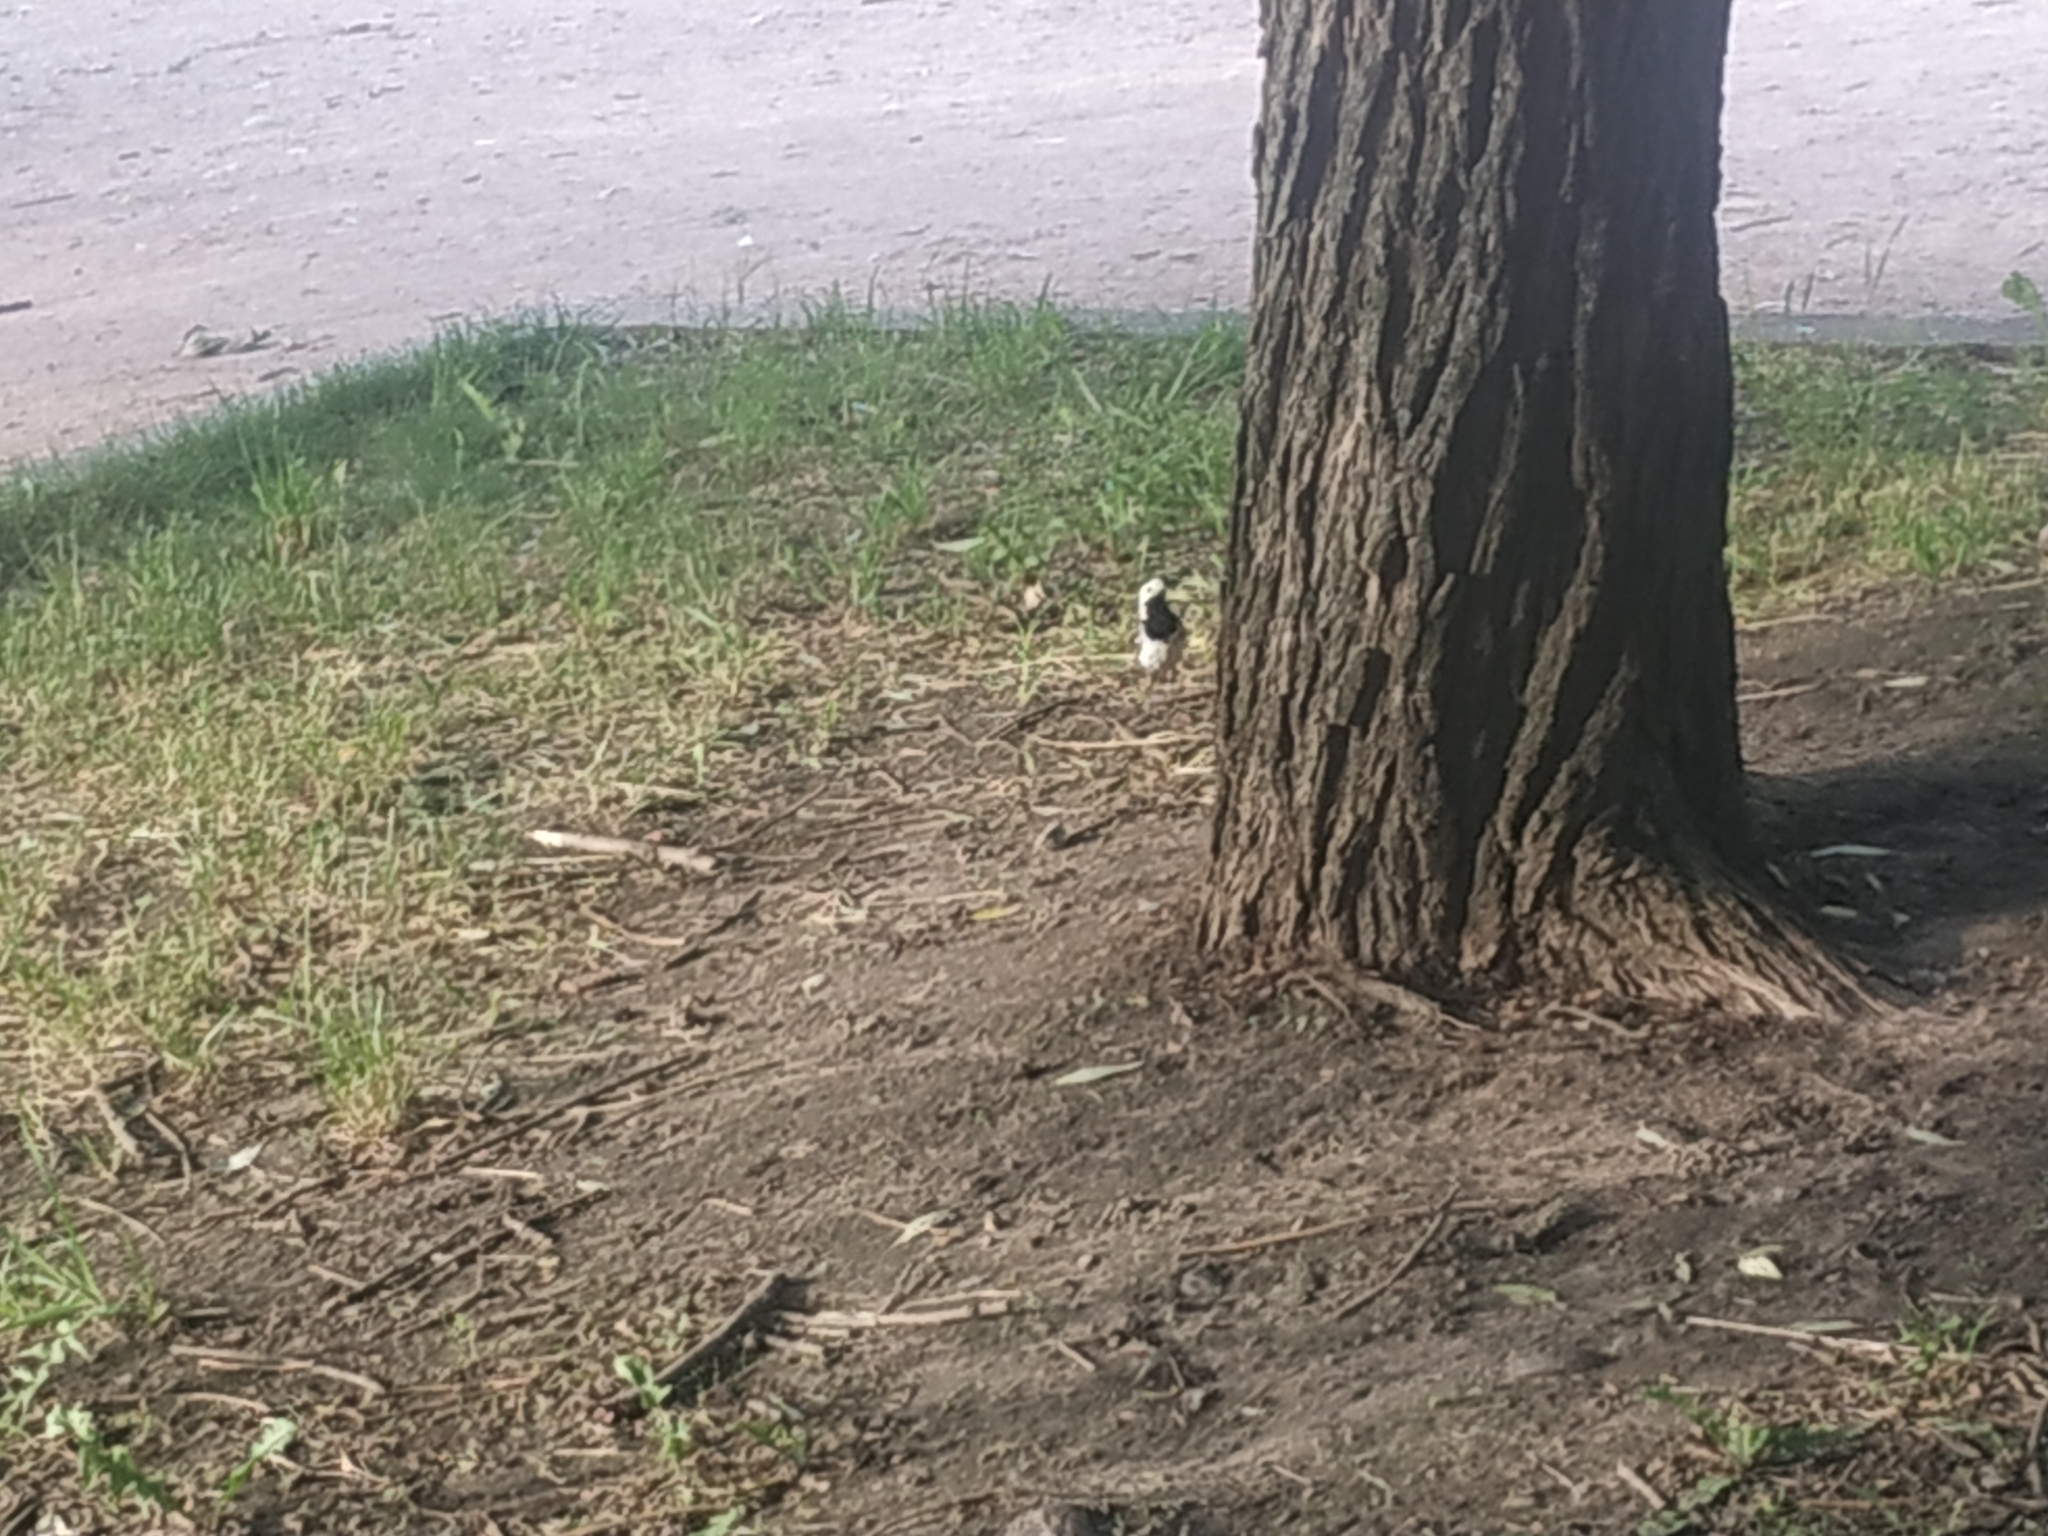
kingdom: Animalia
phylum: Chordata
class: Aves
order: Passeriformes
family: Motacillidae
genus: Motacilla
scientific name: Motacilla alba
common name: White wagtail
